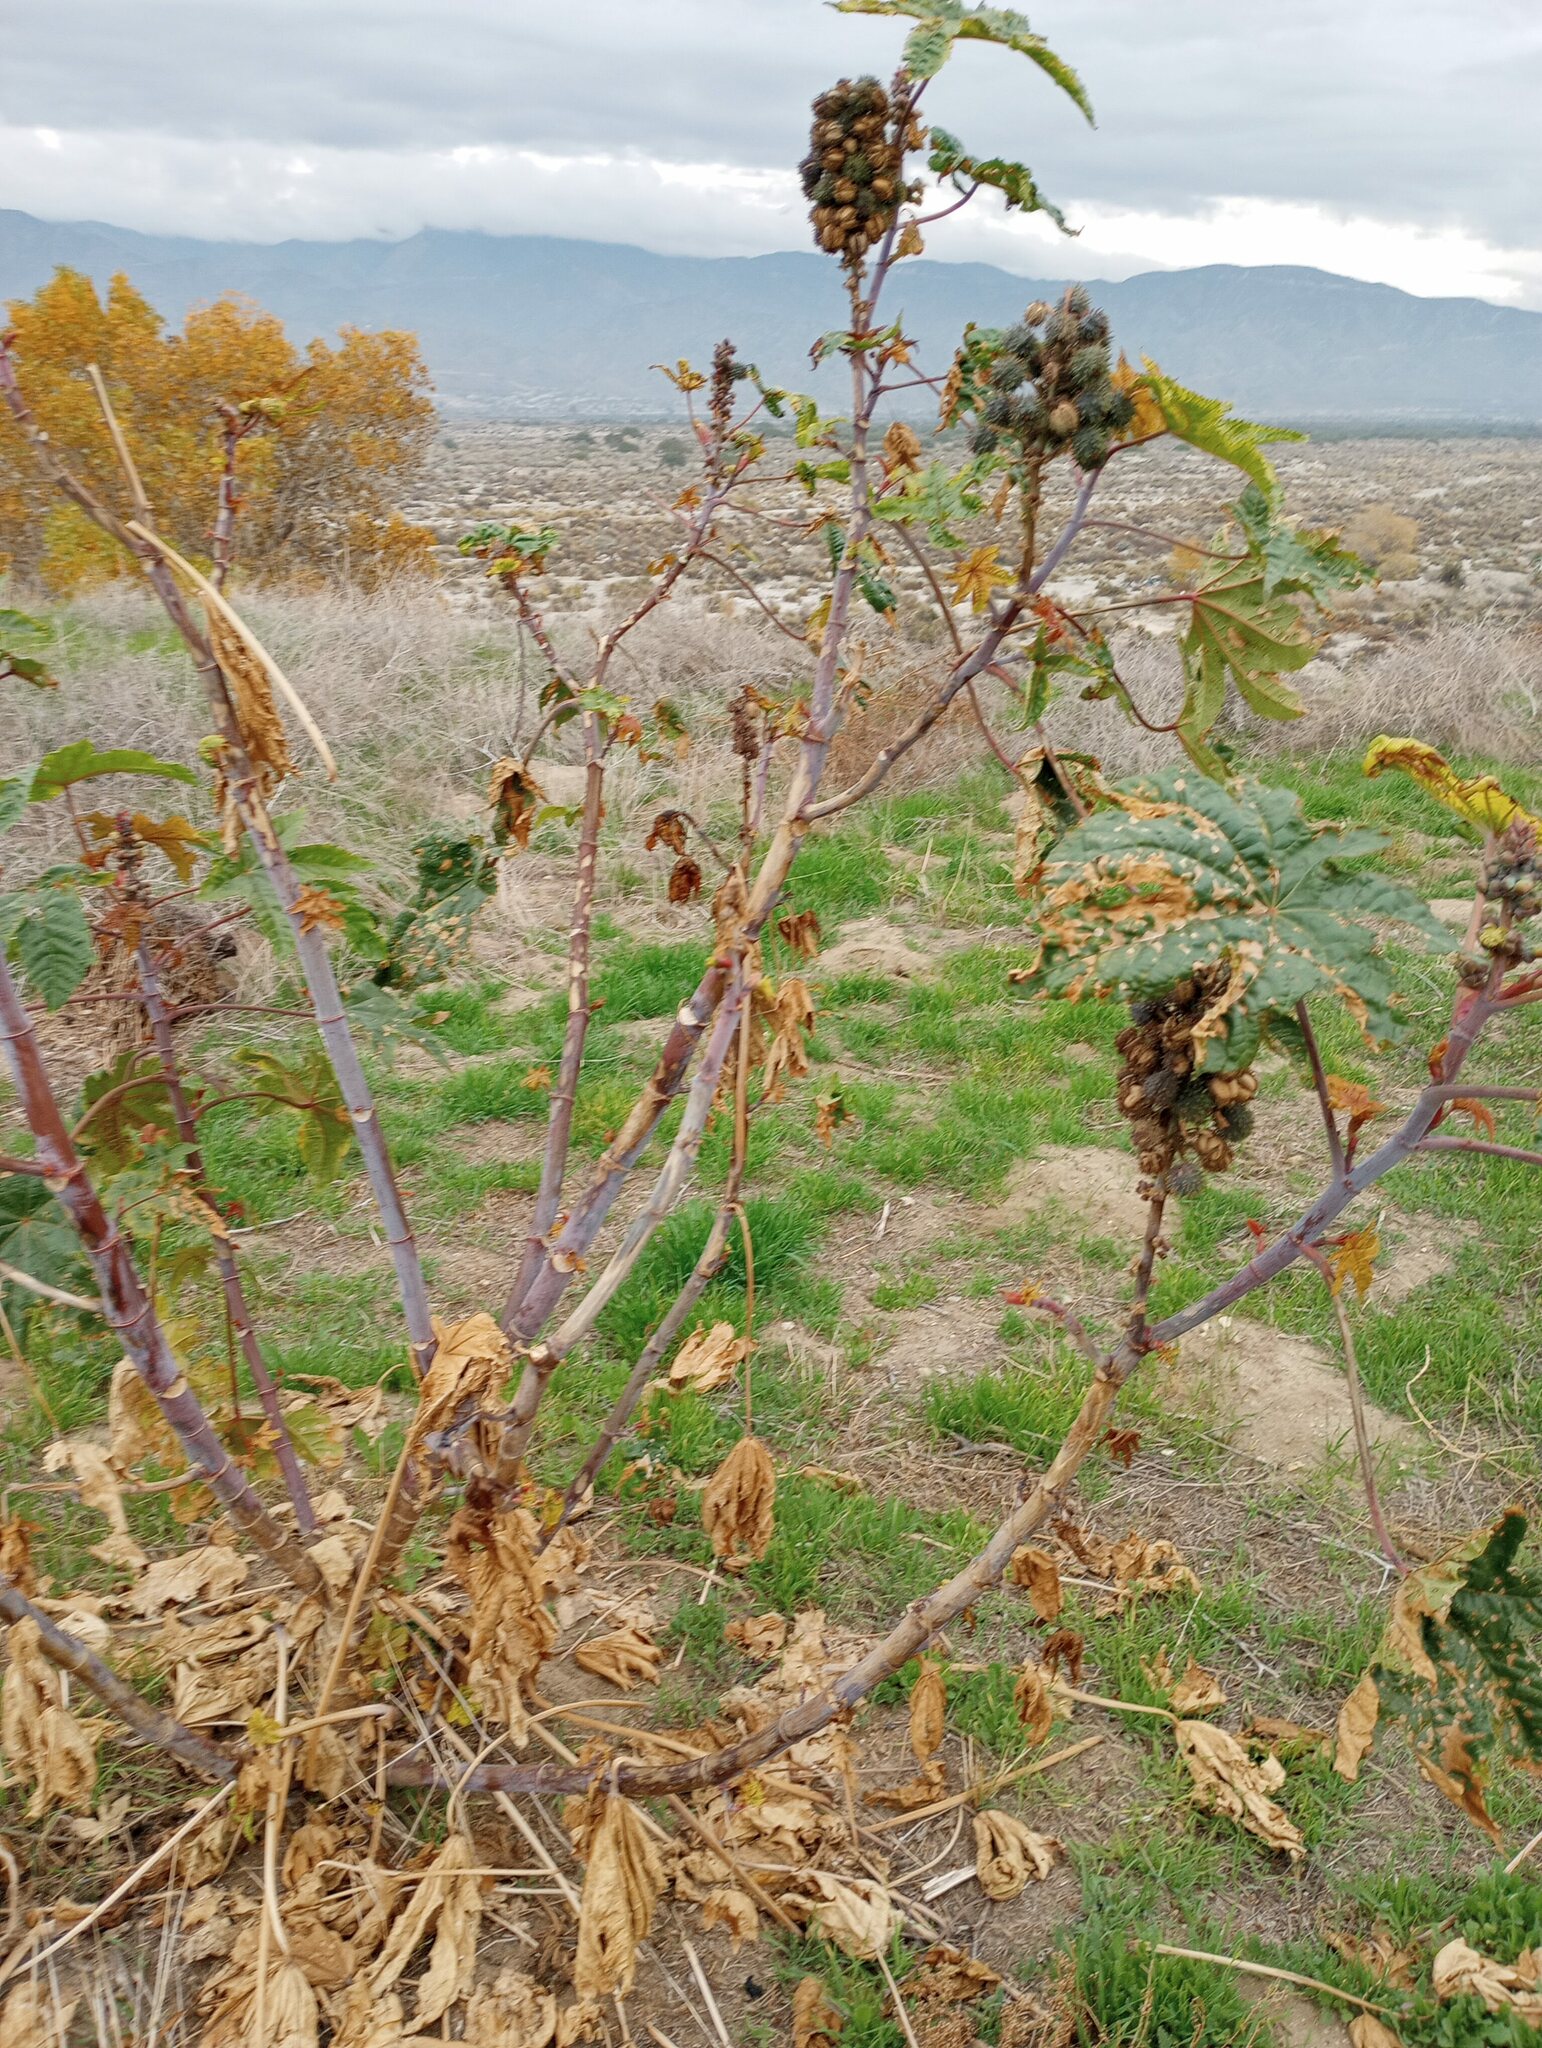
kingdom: Plantae
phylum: Tracheophyta
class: Magnoliopsida
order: Malpighiales
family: Euphorbiaceae
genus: Ricinus
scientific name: Ricinus communis
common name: Castor-oil-plant
